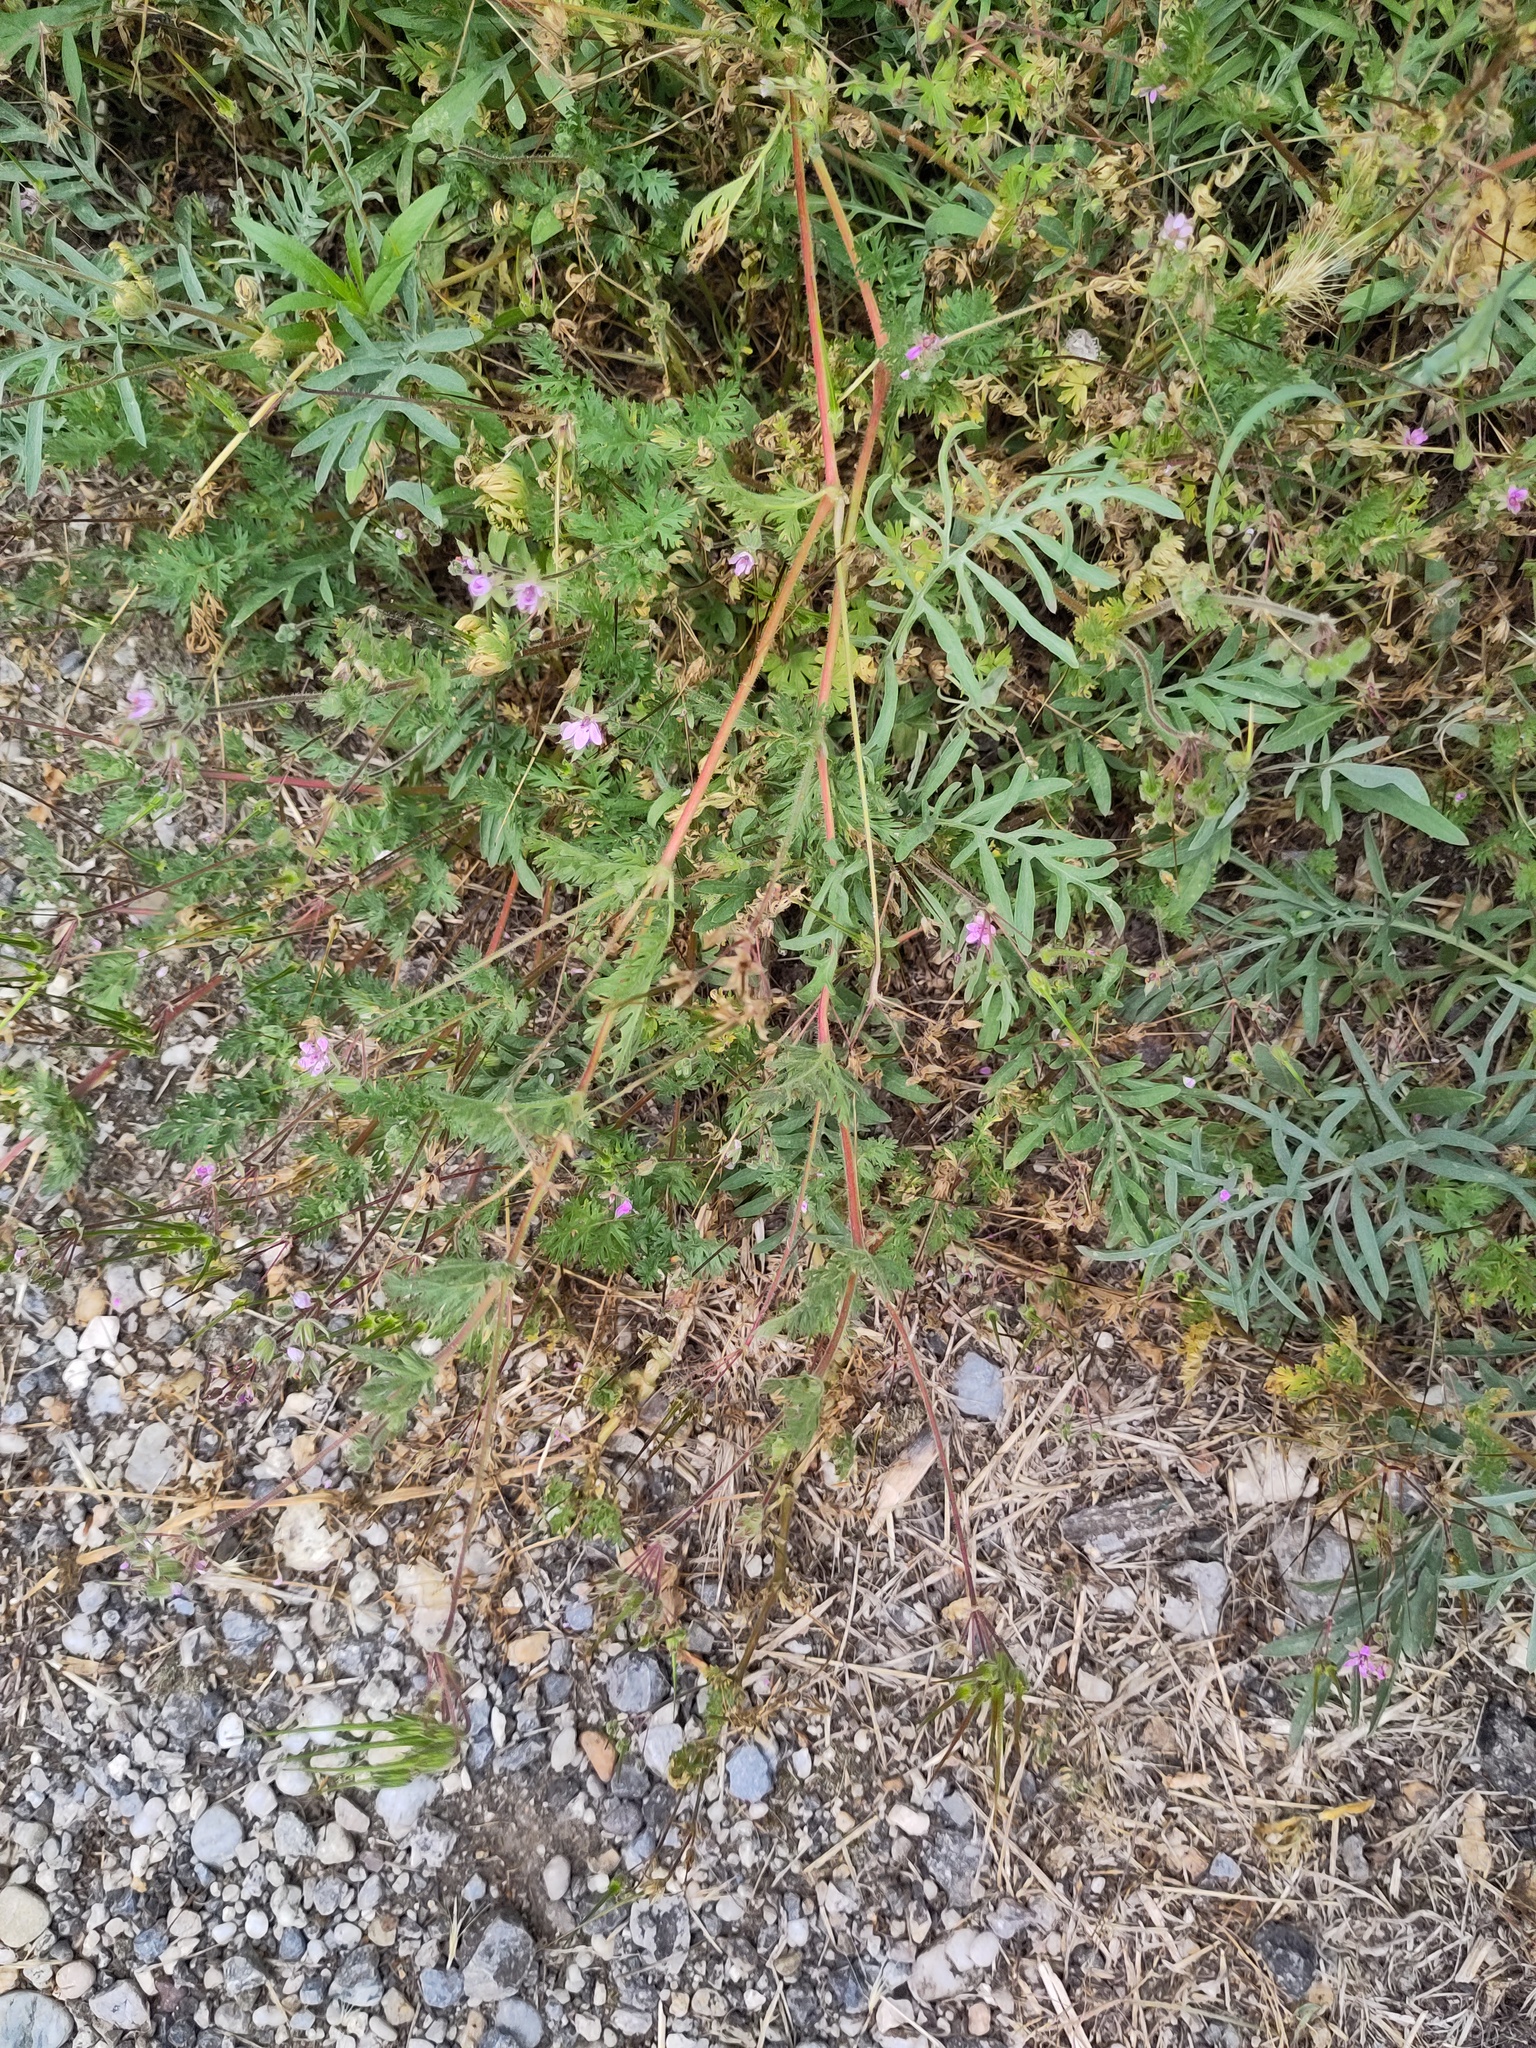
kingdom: Plantae
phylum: Tracheophyta
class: Magnoliopsida
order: Geraniales
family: Geraniaceae
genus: Erodium
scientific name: Erodium cicutarium
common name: Common stork's-bill
